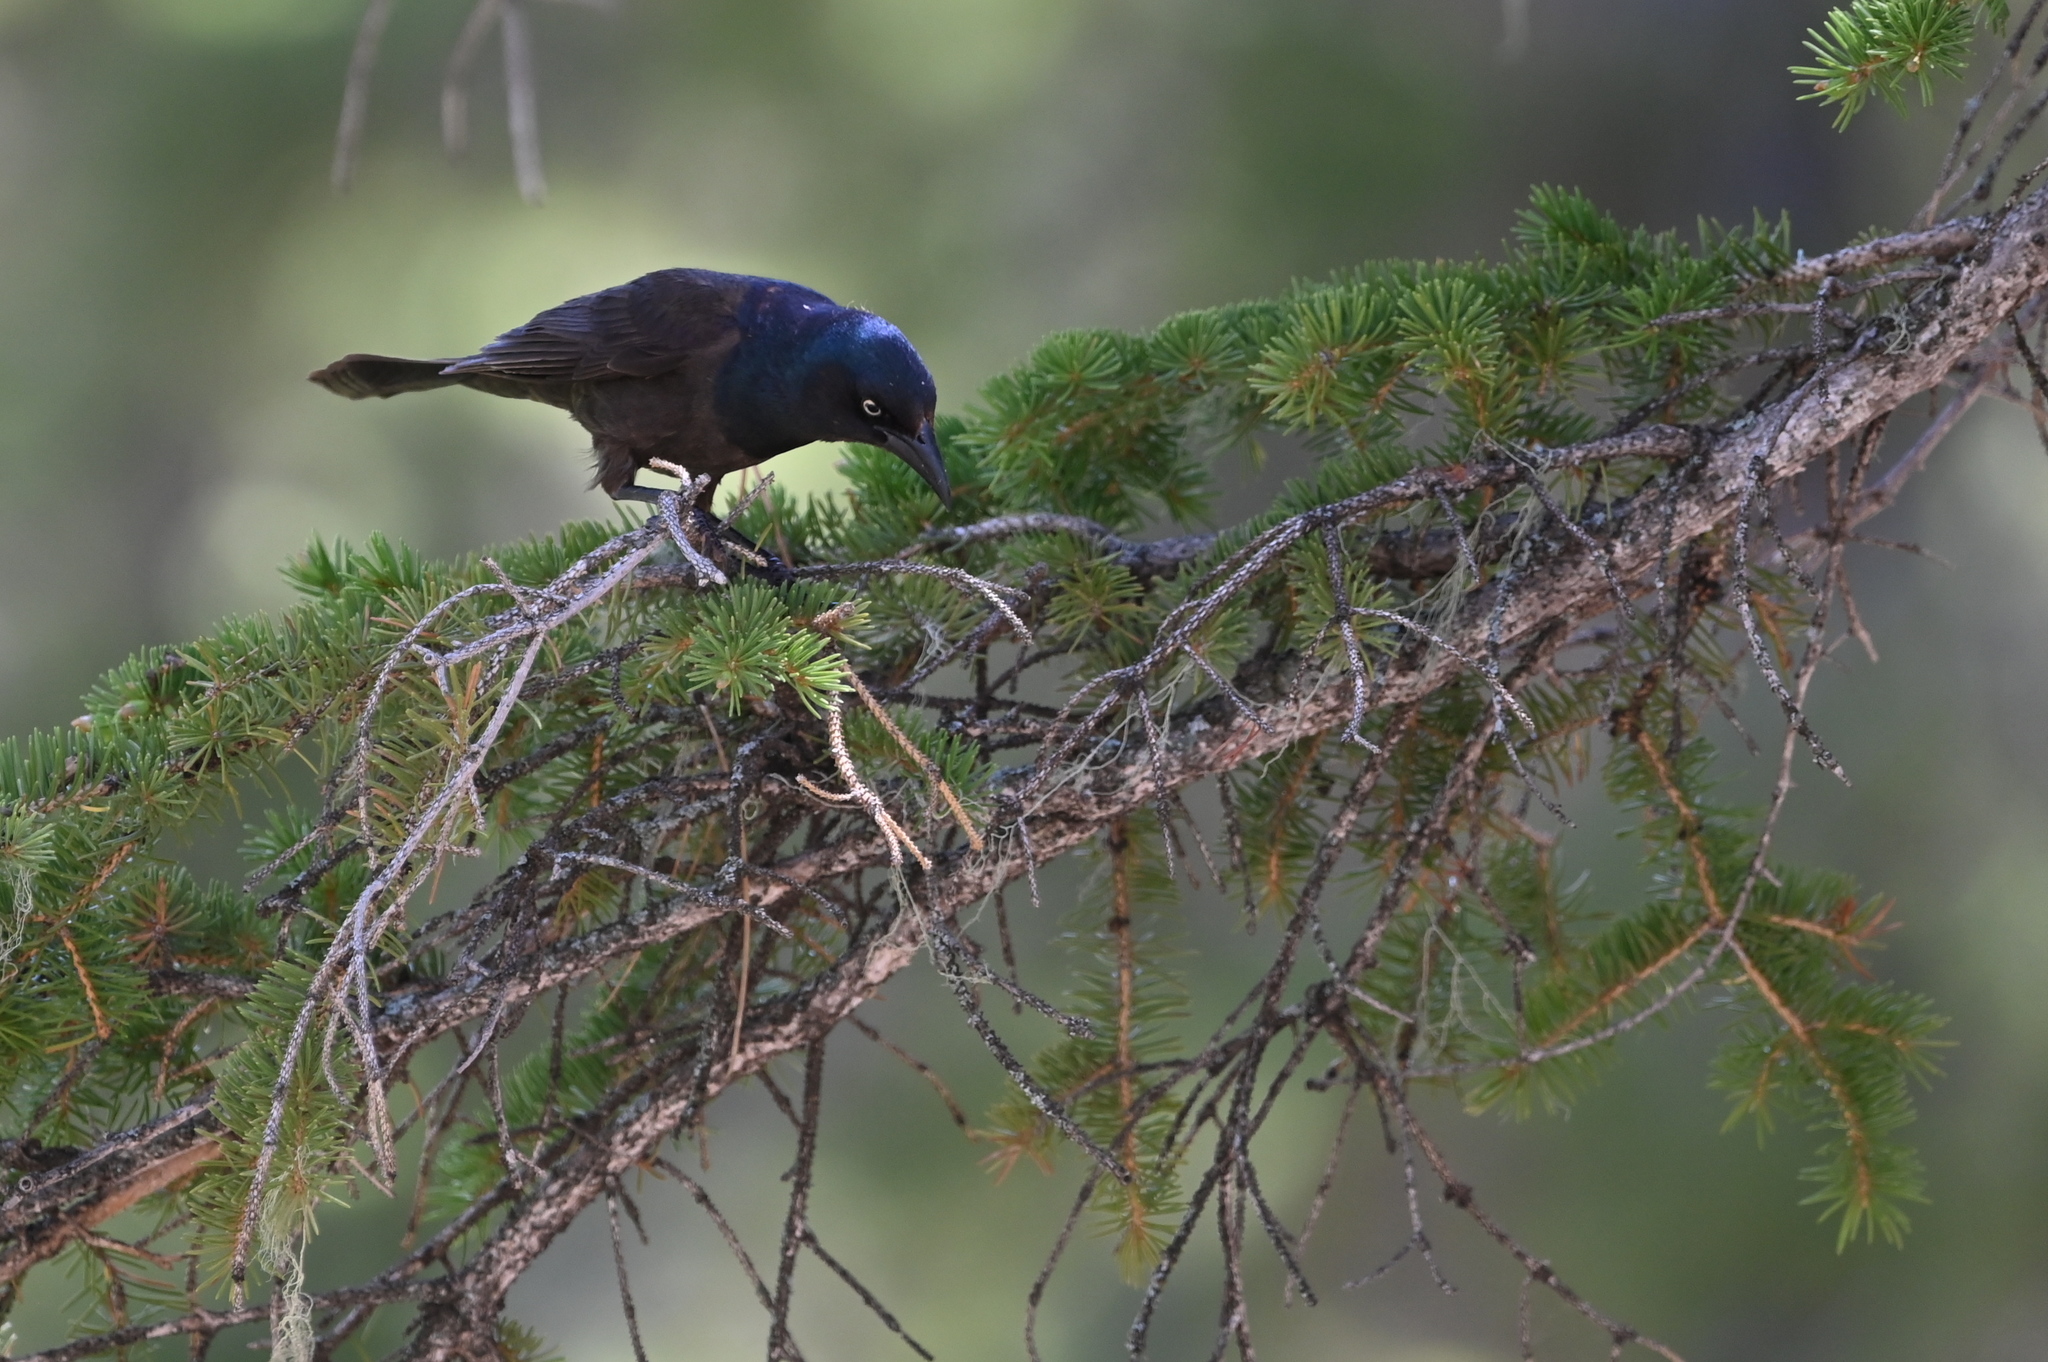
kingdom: Animalia
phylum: Chordata
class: Aves
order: Passeriformes
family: Icteridae
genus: Quiscalus
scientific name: Quiscalus quiscula
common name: Common grackle
